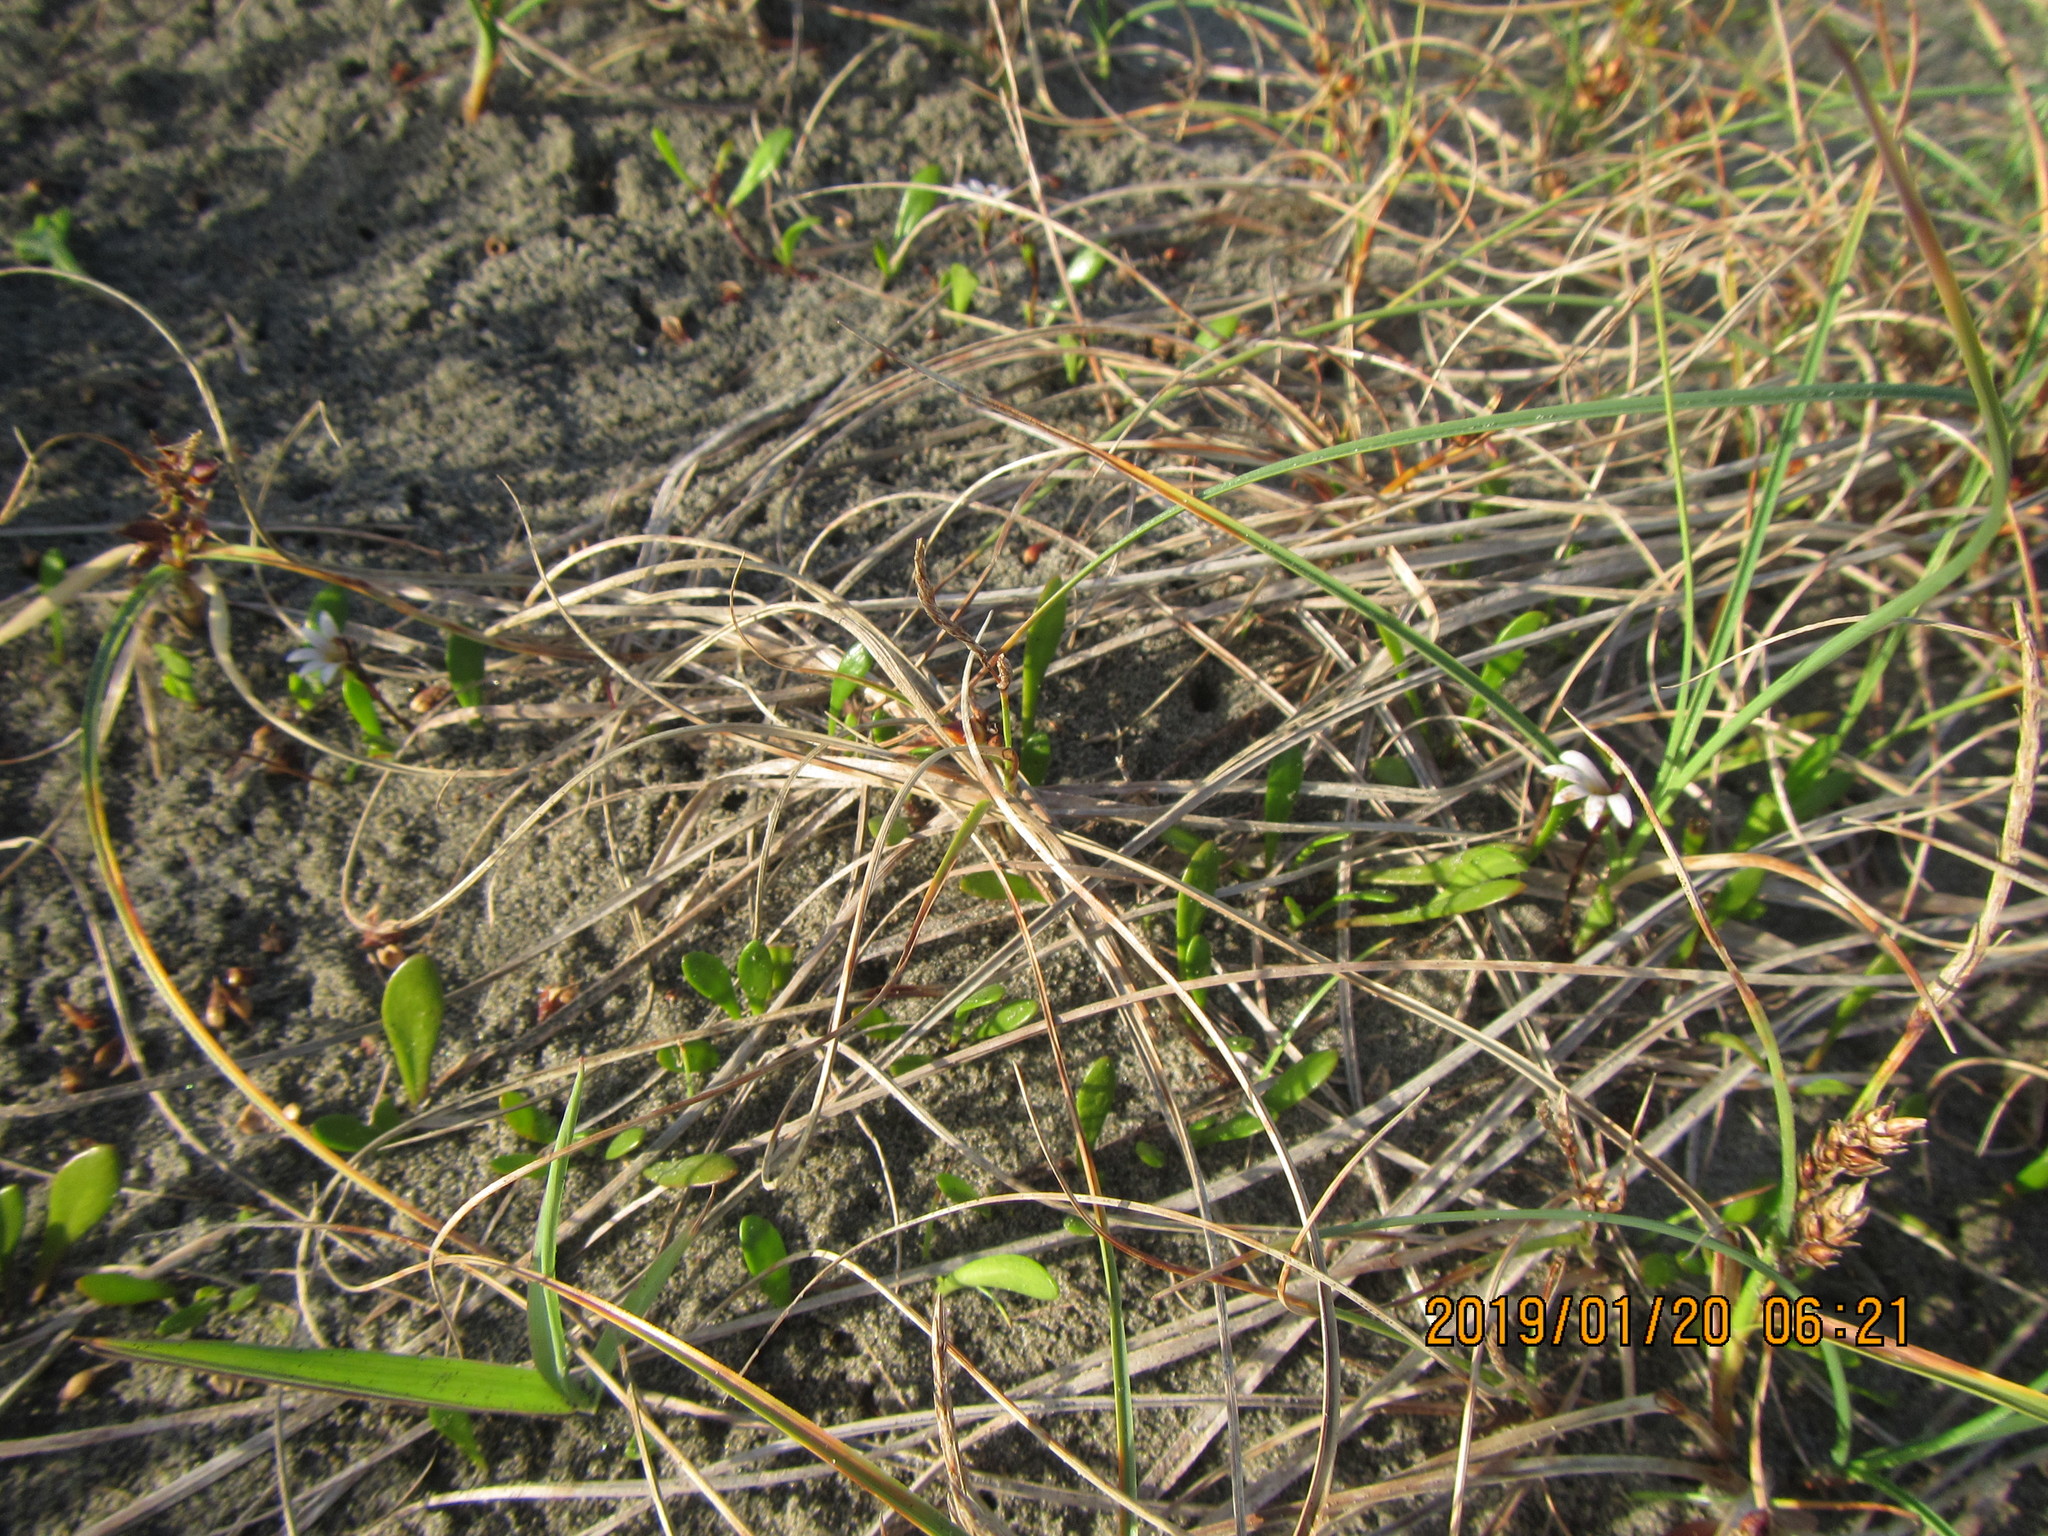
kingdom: Plantae
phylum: Tracheophyta
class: Magnoliopsida
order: Asterales
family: Goodeniaceae
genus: Goodenia
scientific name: Goodenia radicans
